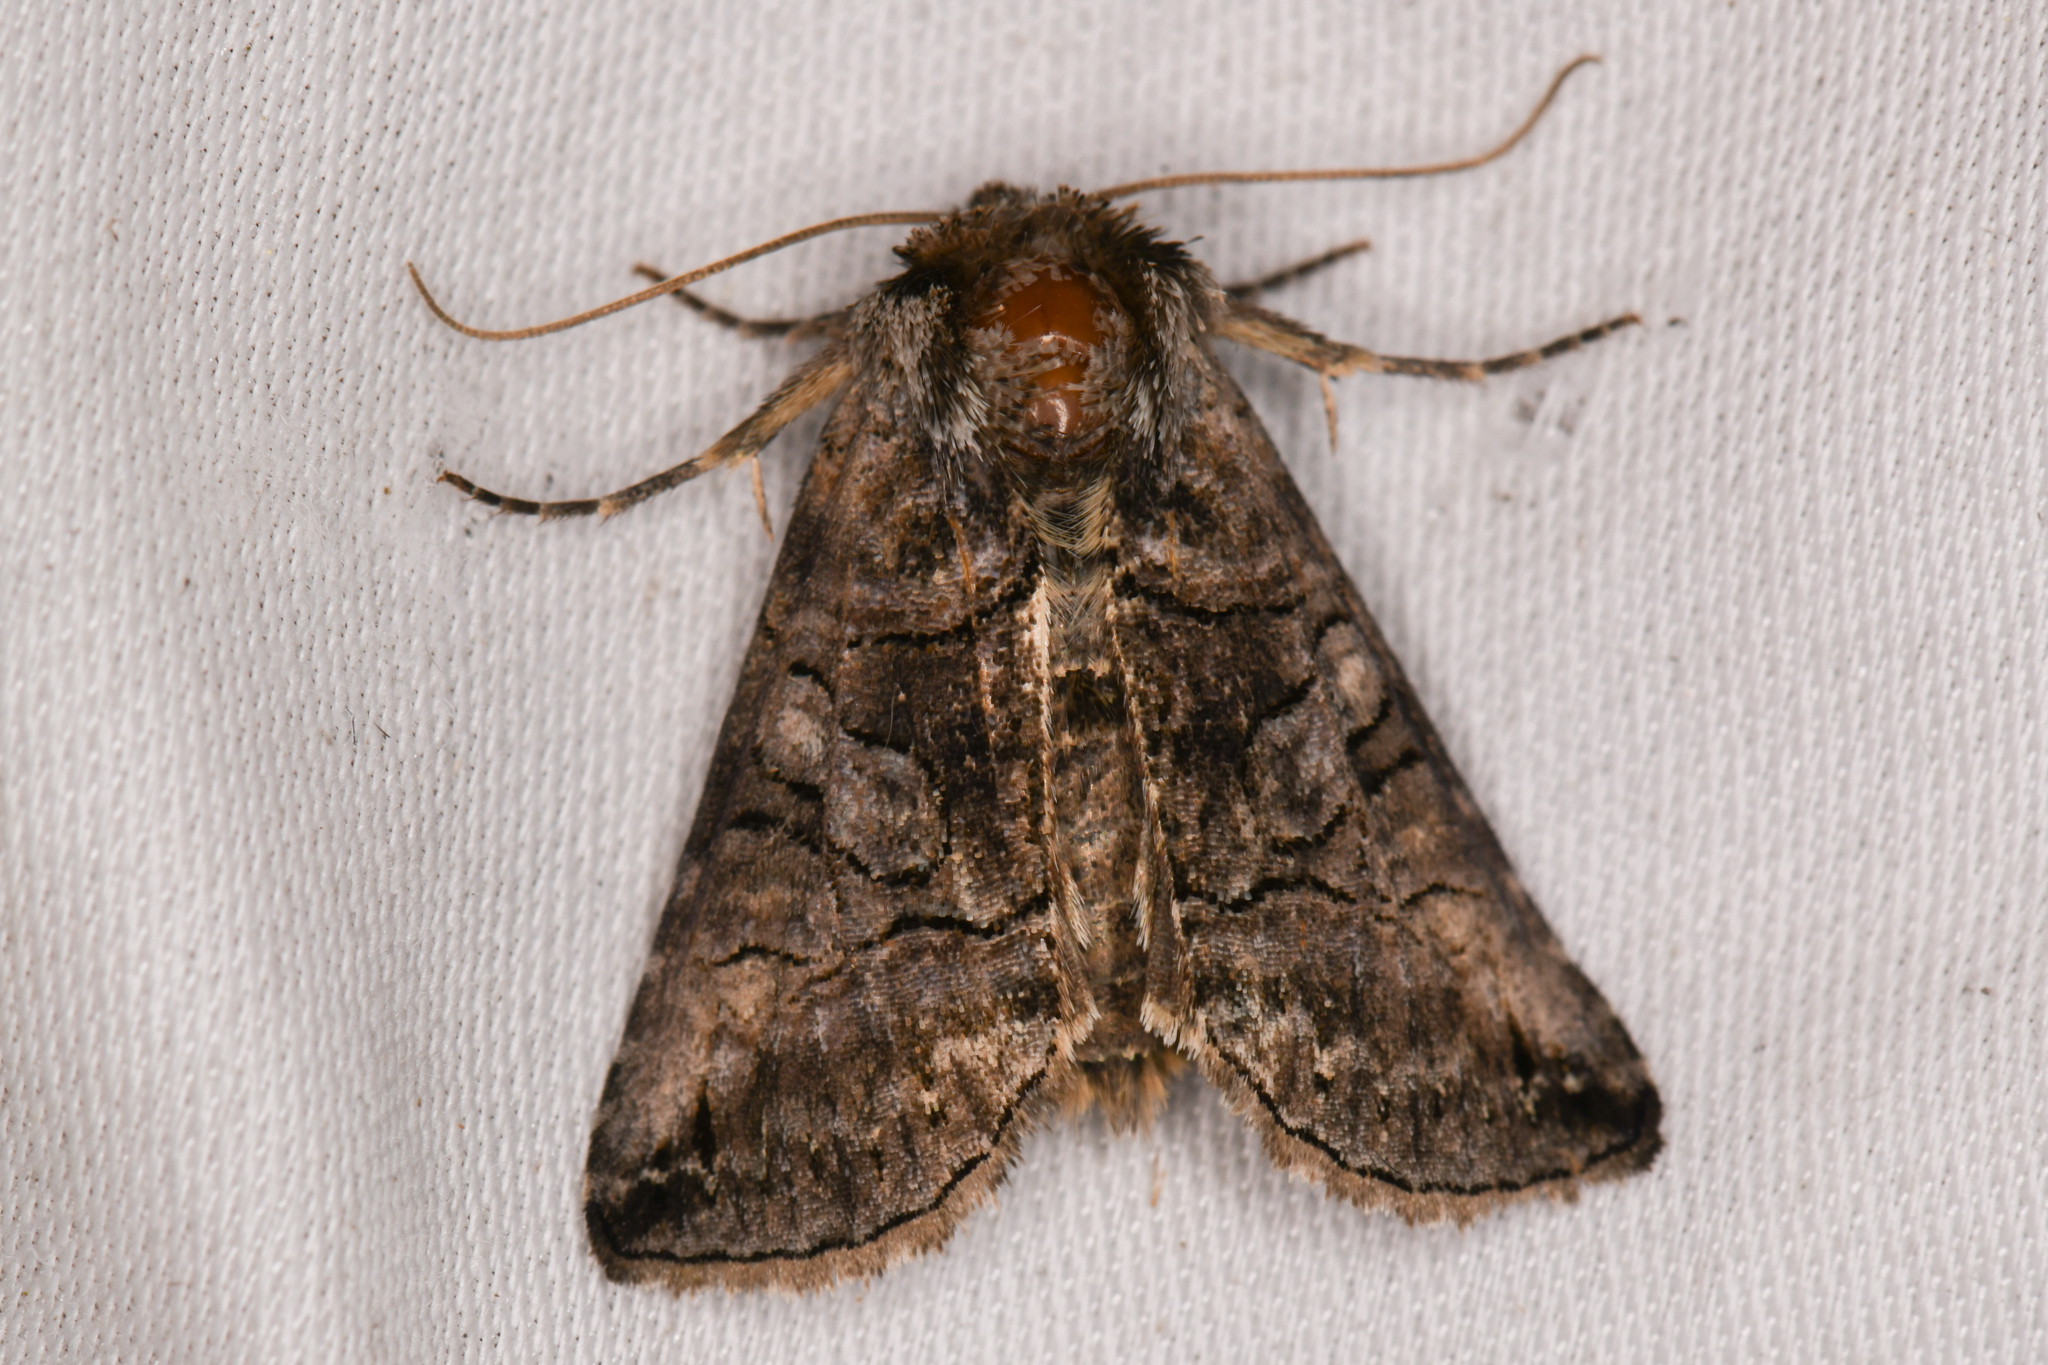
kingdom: Animalia
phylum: Arthropoda
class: Insecta
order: Lepidoptera
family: Noctuidae
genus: Abrostola
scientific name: Abrostola urentis
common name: Spectacled nettle moth
